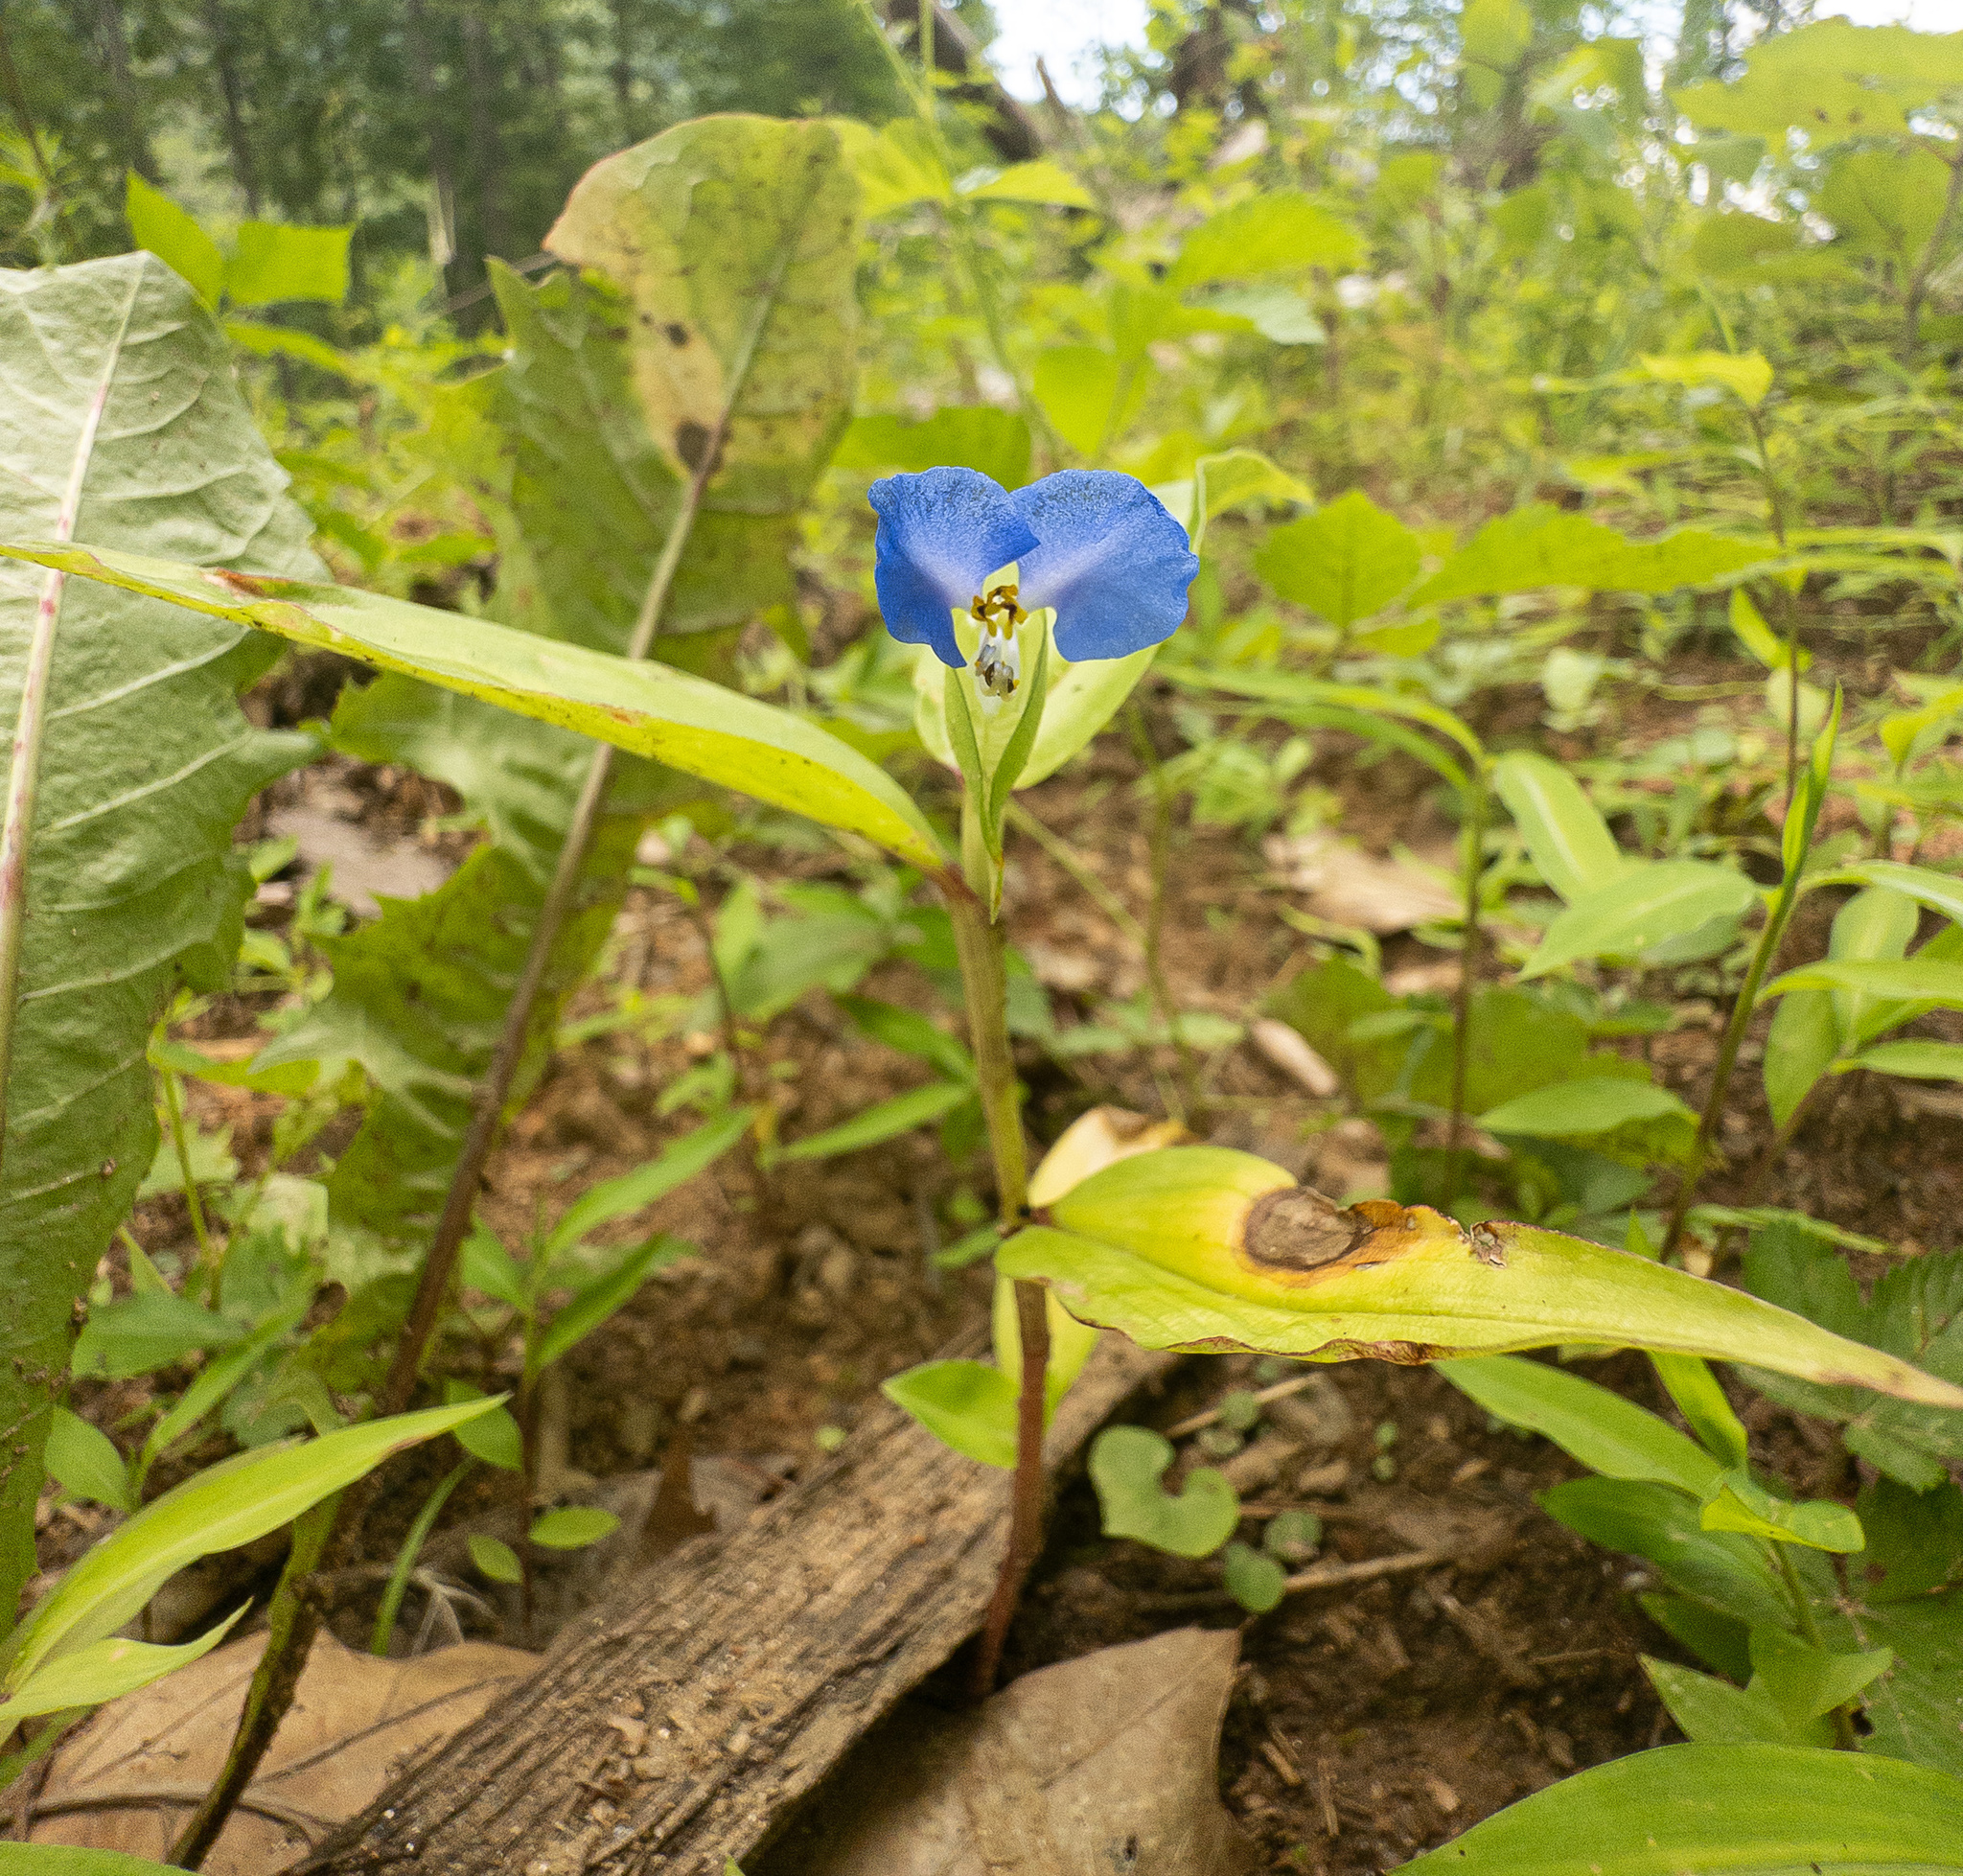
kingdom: Plantae
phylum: Tracheophyta
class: Liliopsida
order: Commelinales
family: Commelinaceae
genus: Commelina
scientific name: Commelina communis
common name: Asiatic dayflower
